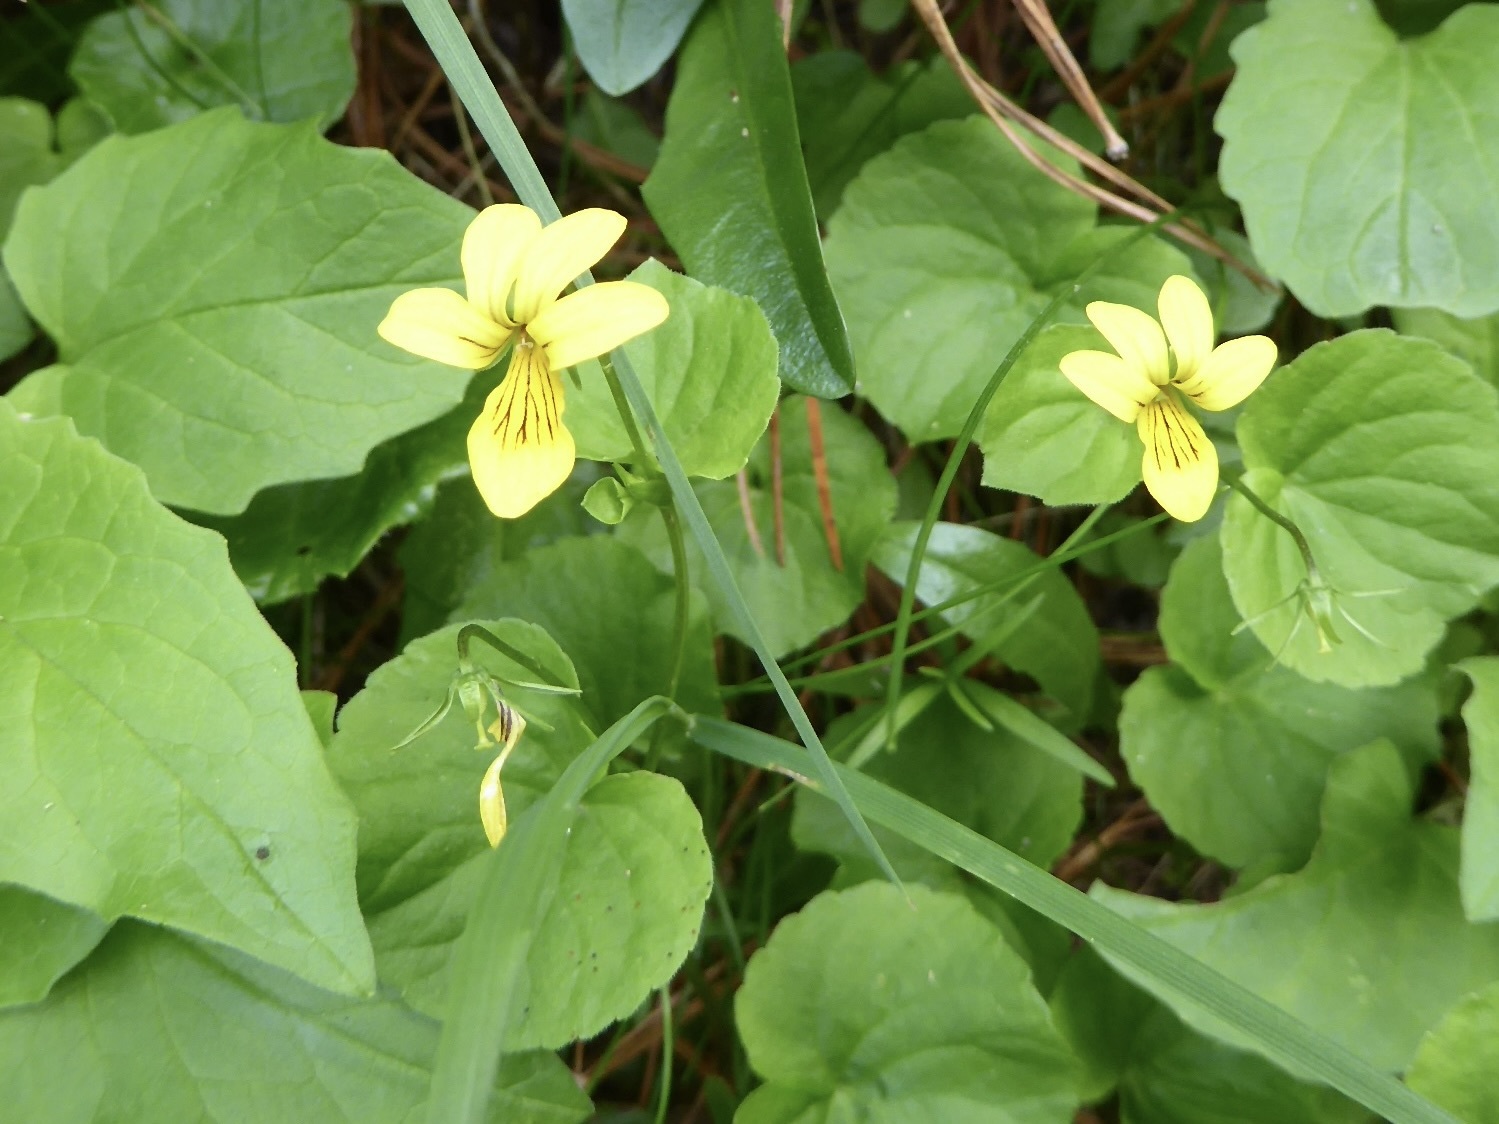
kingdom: Plantae
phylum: Tracheophyta
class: Magnoliopsida
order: Malpighiales
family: Violaceae
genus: Viola
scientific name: Viola biflora
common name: Alpine yellow violet
